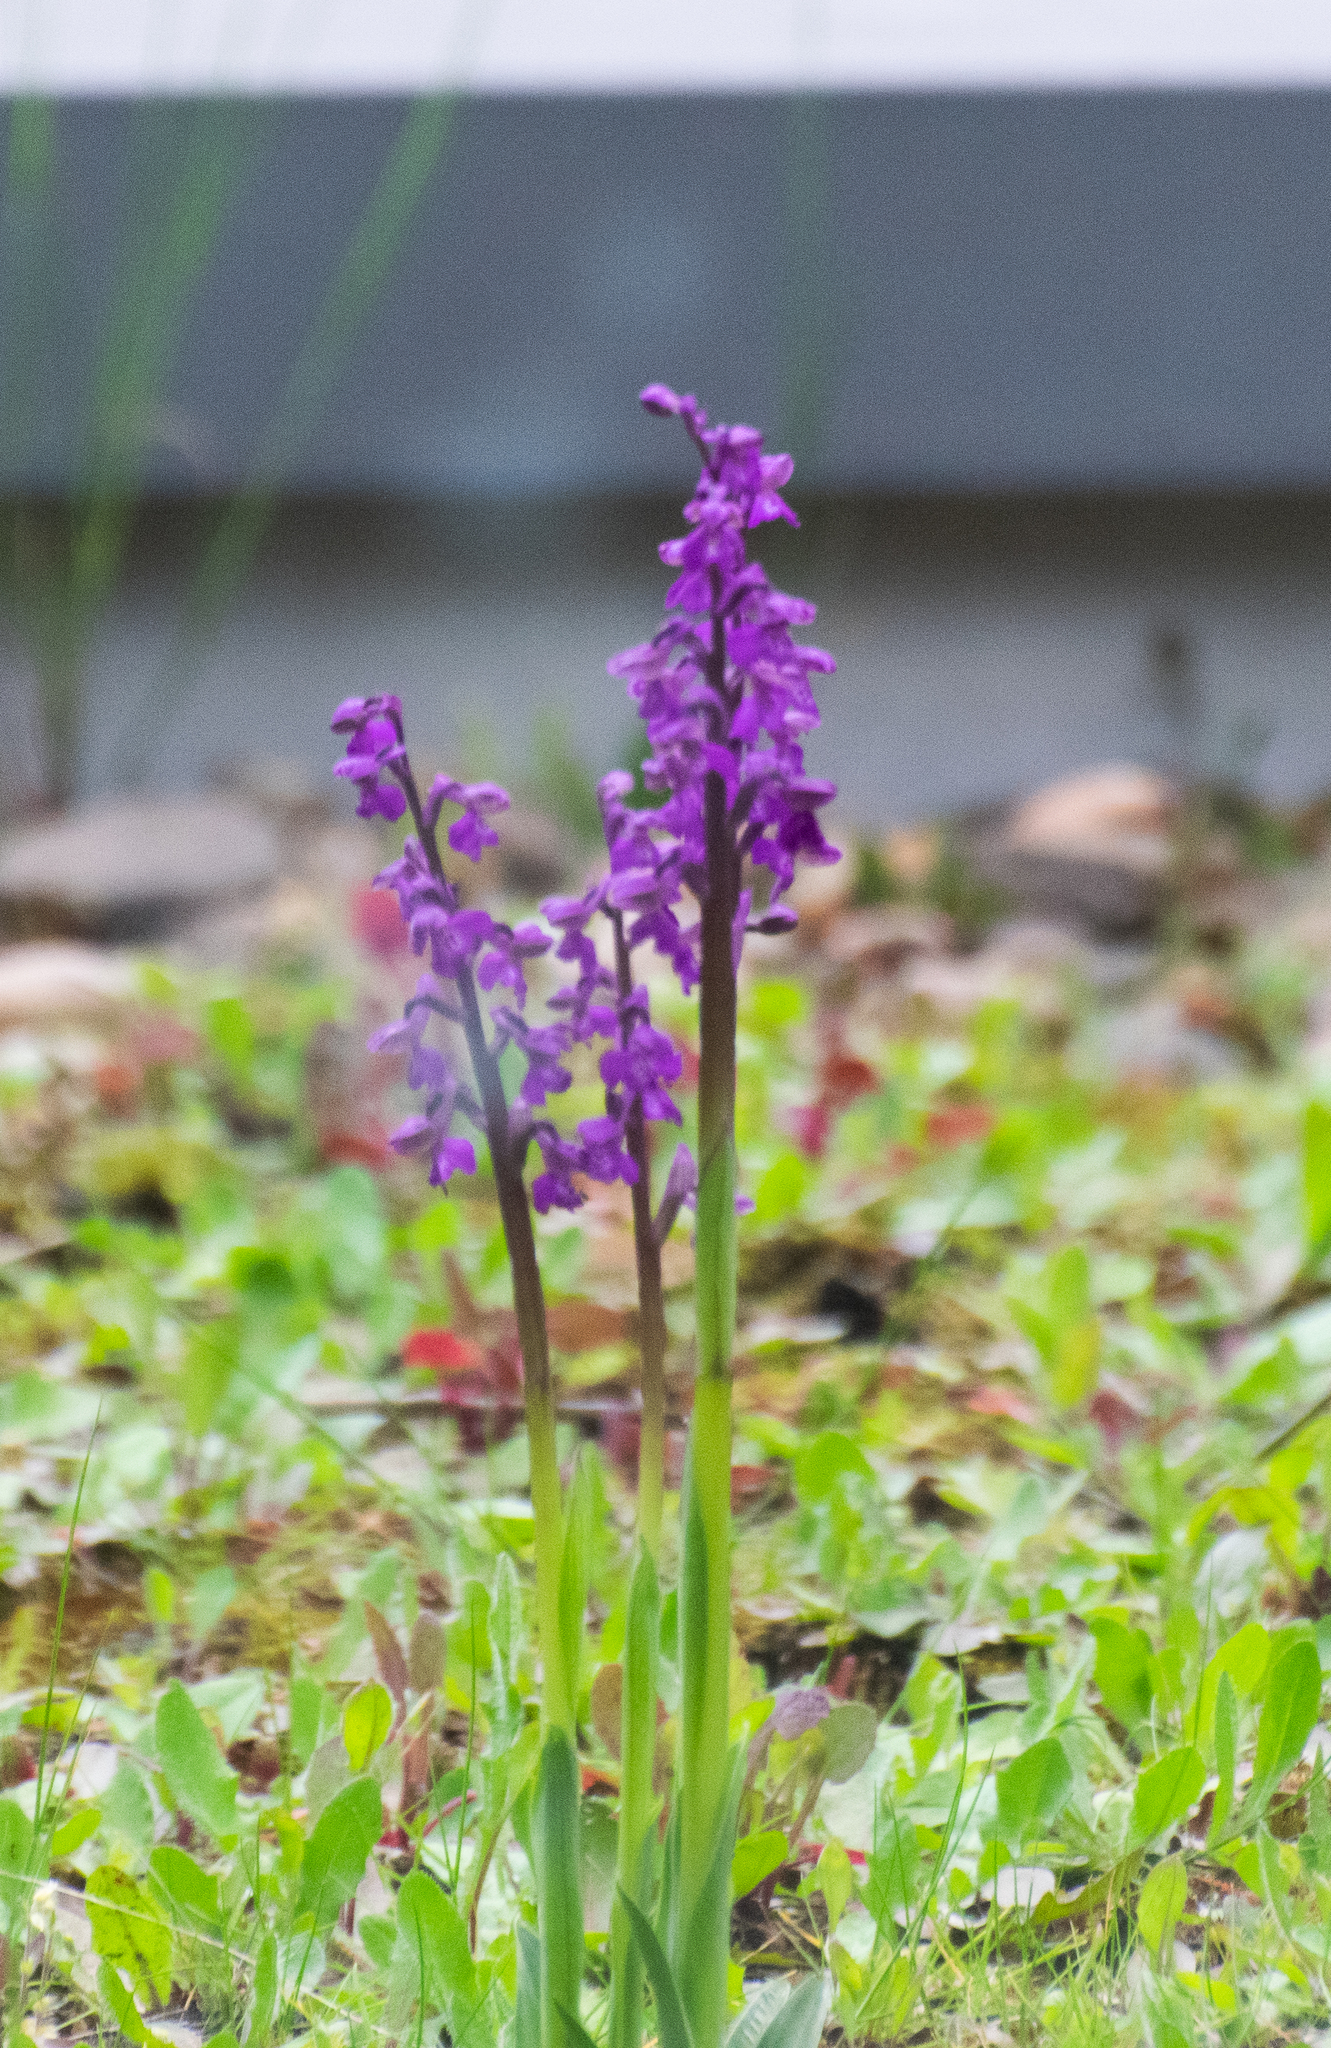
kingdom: Plantae
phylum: Tracheophyta
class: Liliopsida
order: Asparagales
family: Orchidaceae
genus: Orchis
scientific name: Orchis mascula
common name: Early-purple orchid
